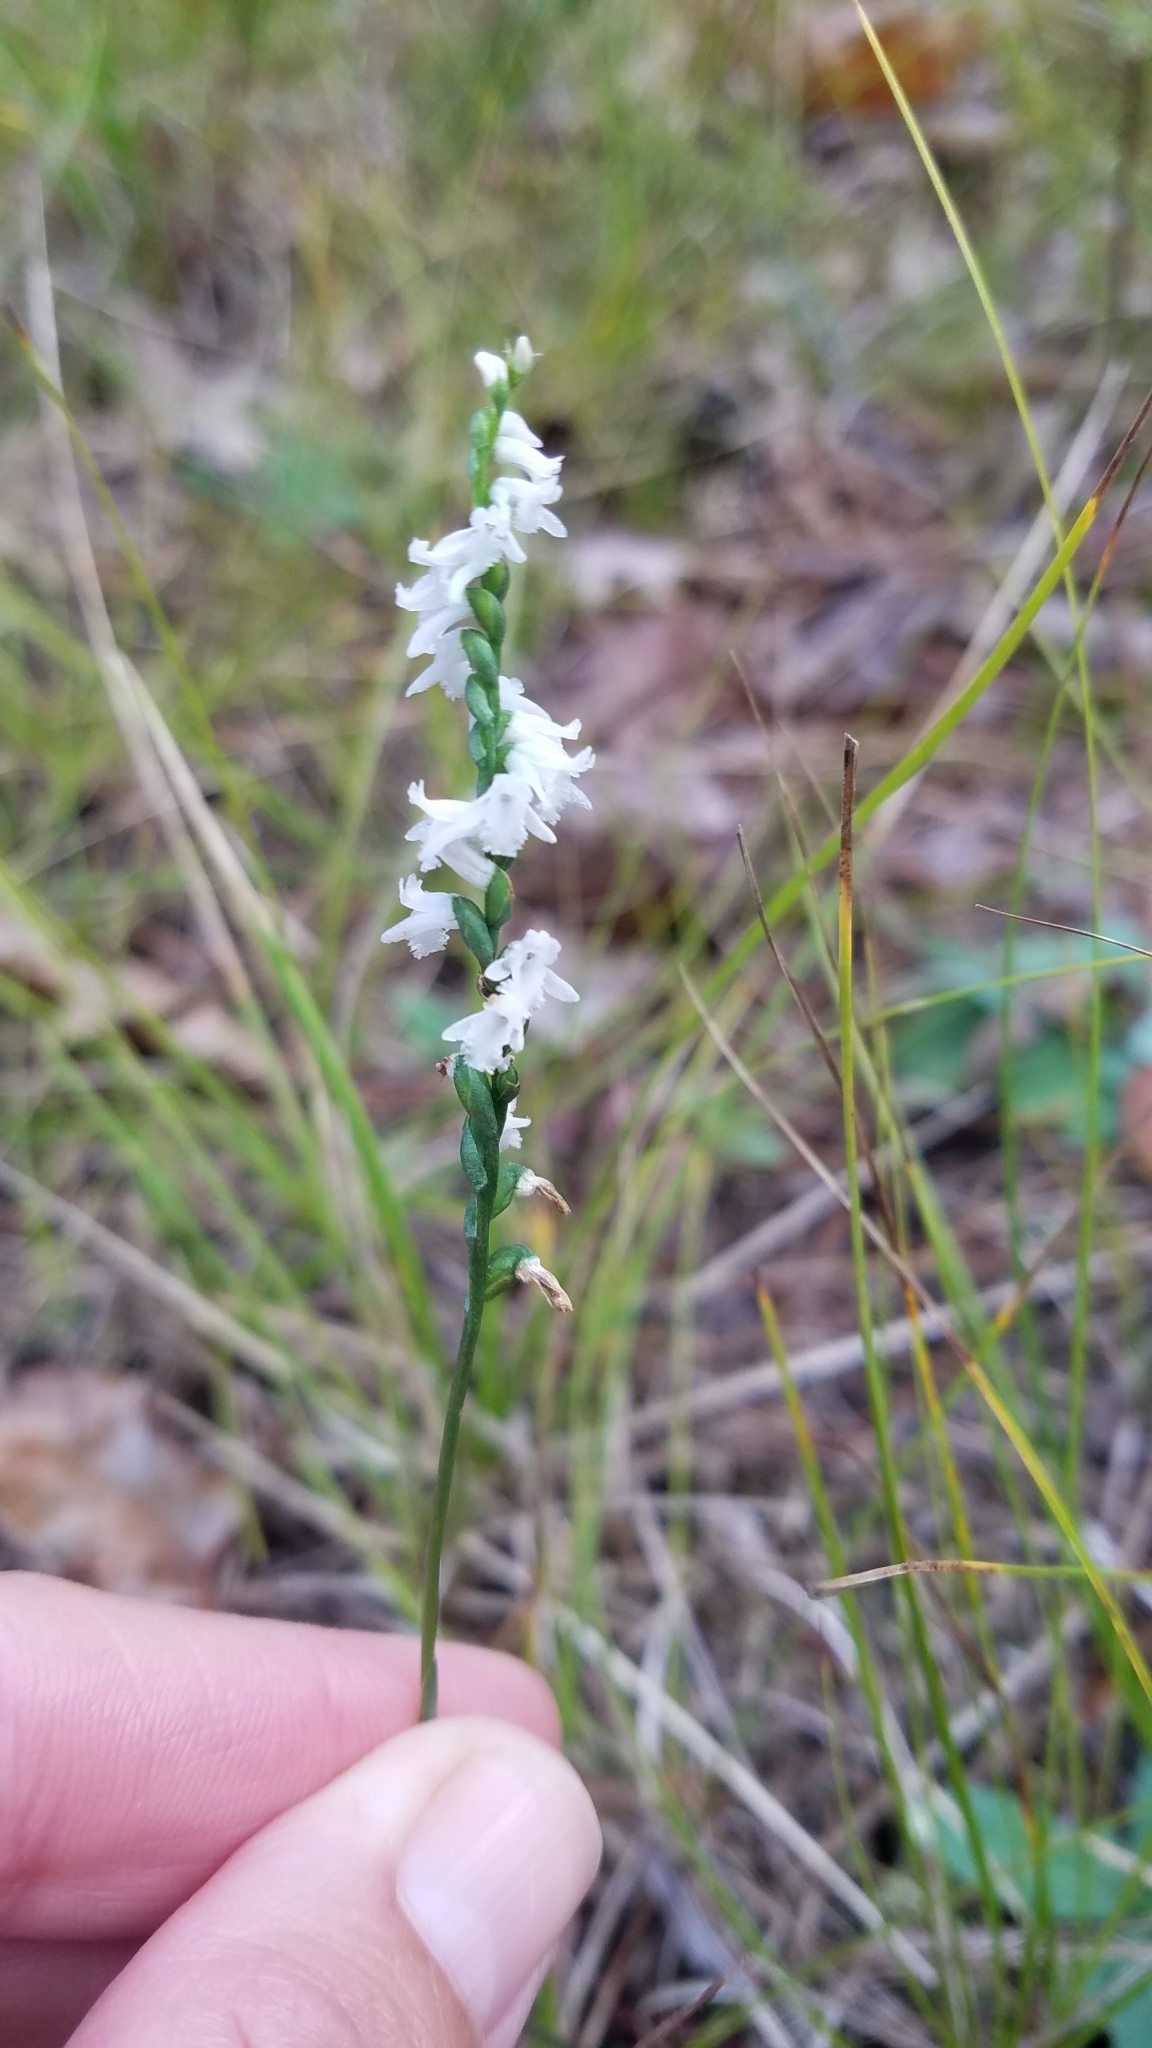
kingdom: Plantae
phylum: Tracheophyta
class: Liliopsida
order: Asparagales
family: Orchidaceae
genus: Spiranthes
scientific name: Spiranthes tuberosa
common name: Little ladies'-tresses
